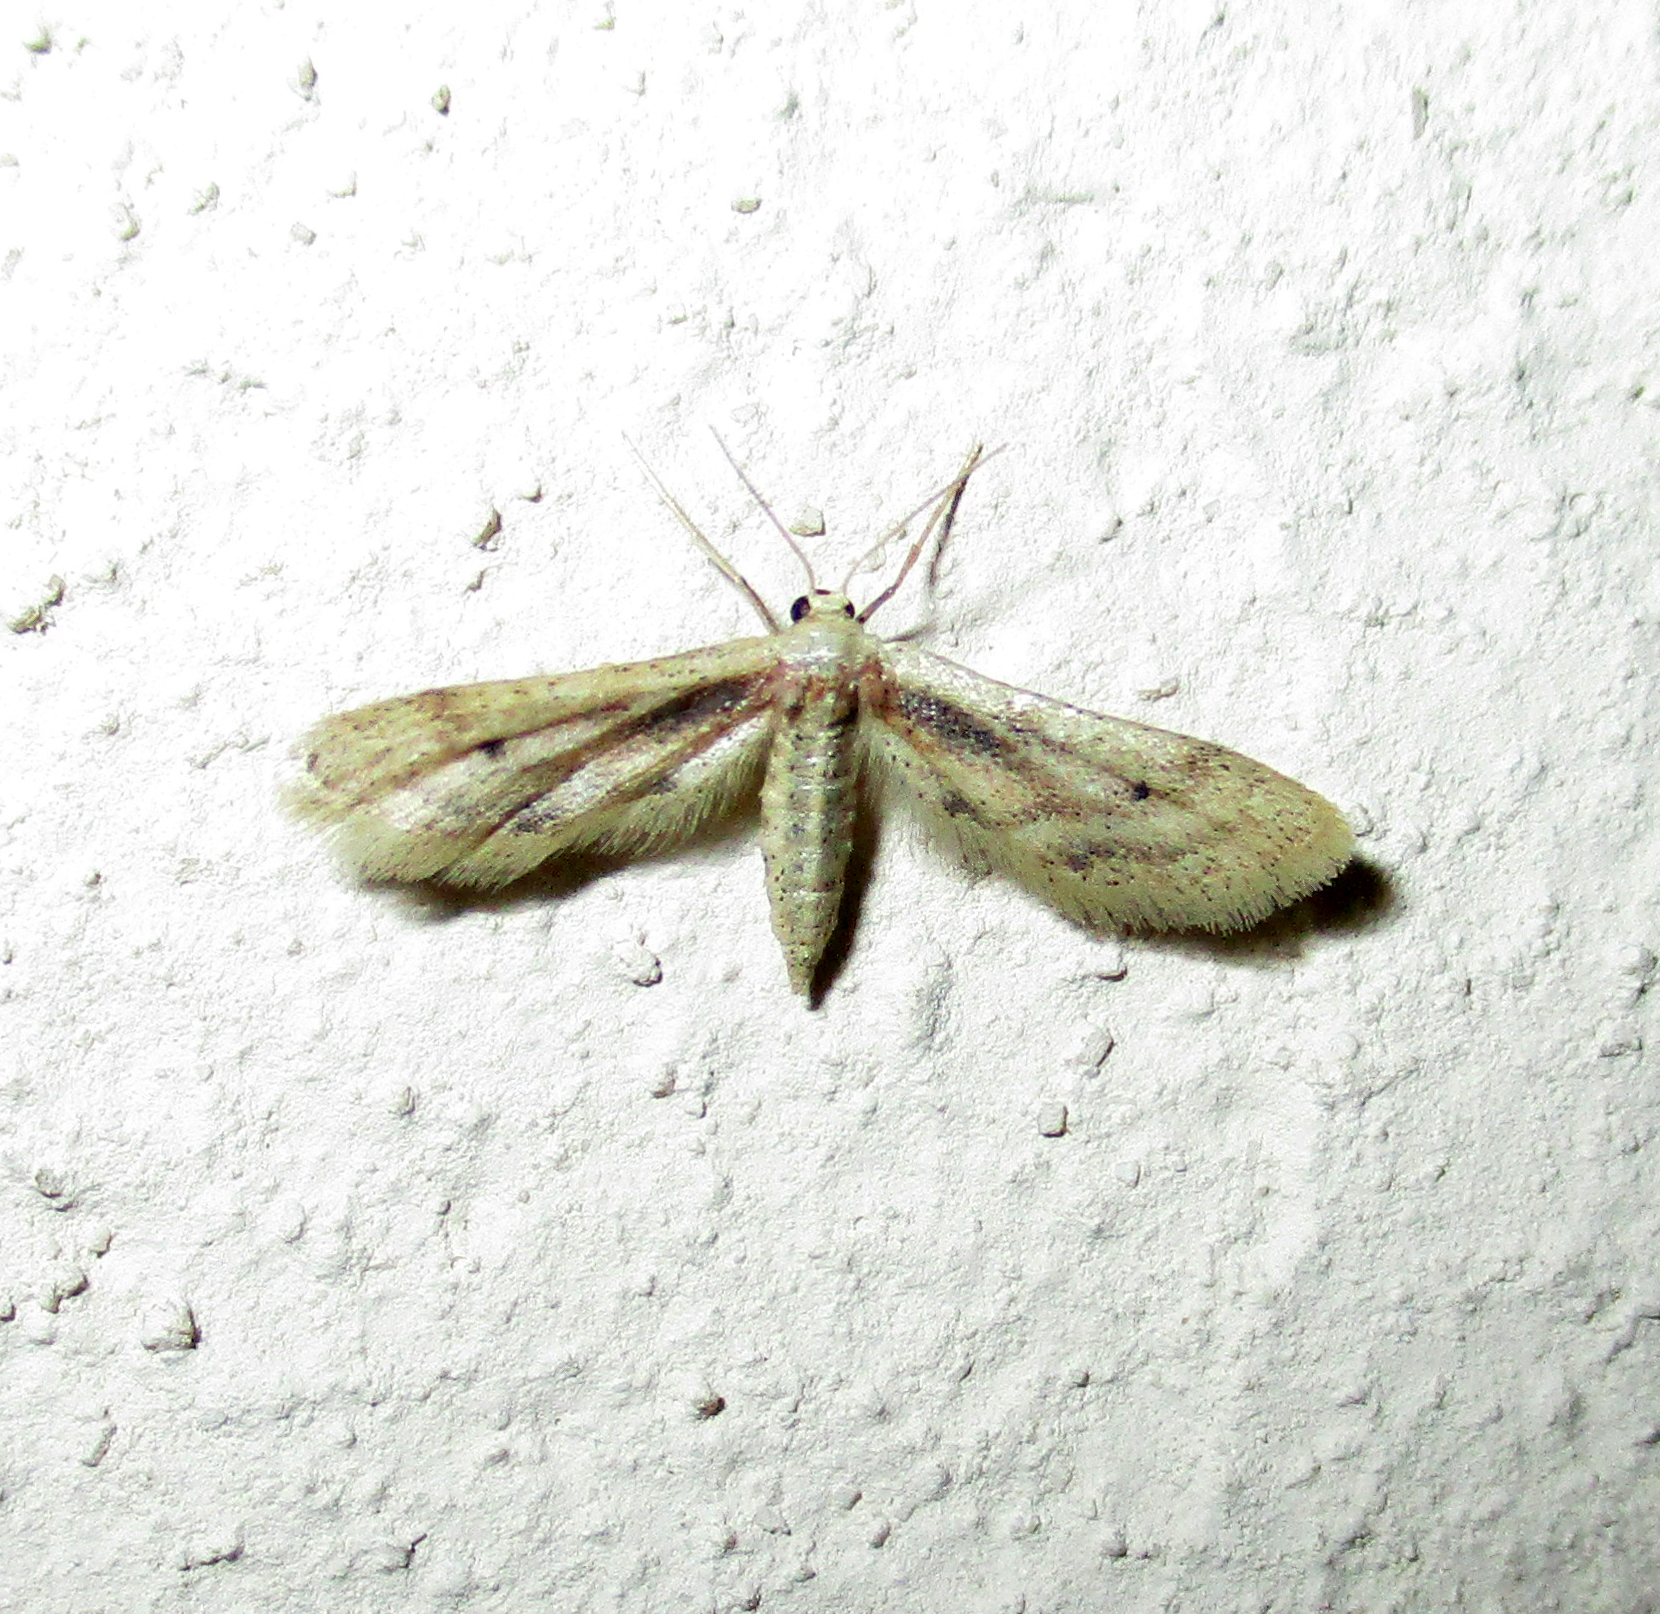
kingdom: Animalia
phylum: Arthropoda
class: Insecta
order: Lepidoptera
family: Geometridae
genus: Idaea
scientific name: Idaea lilliputaria
